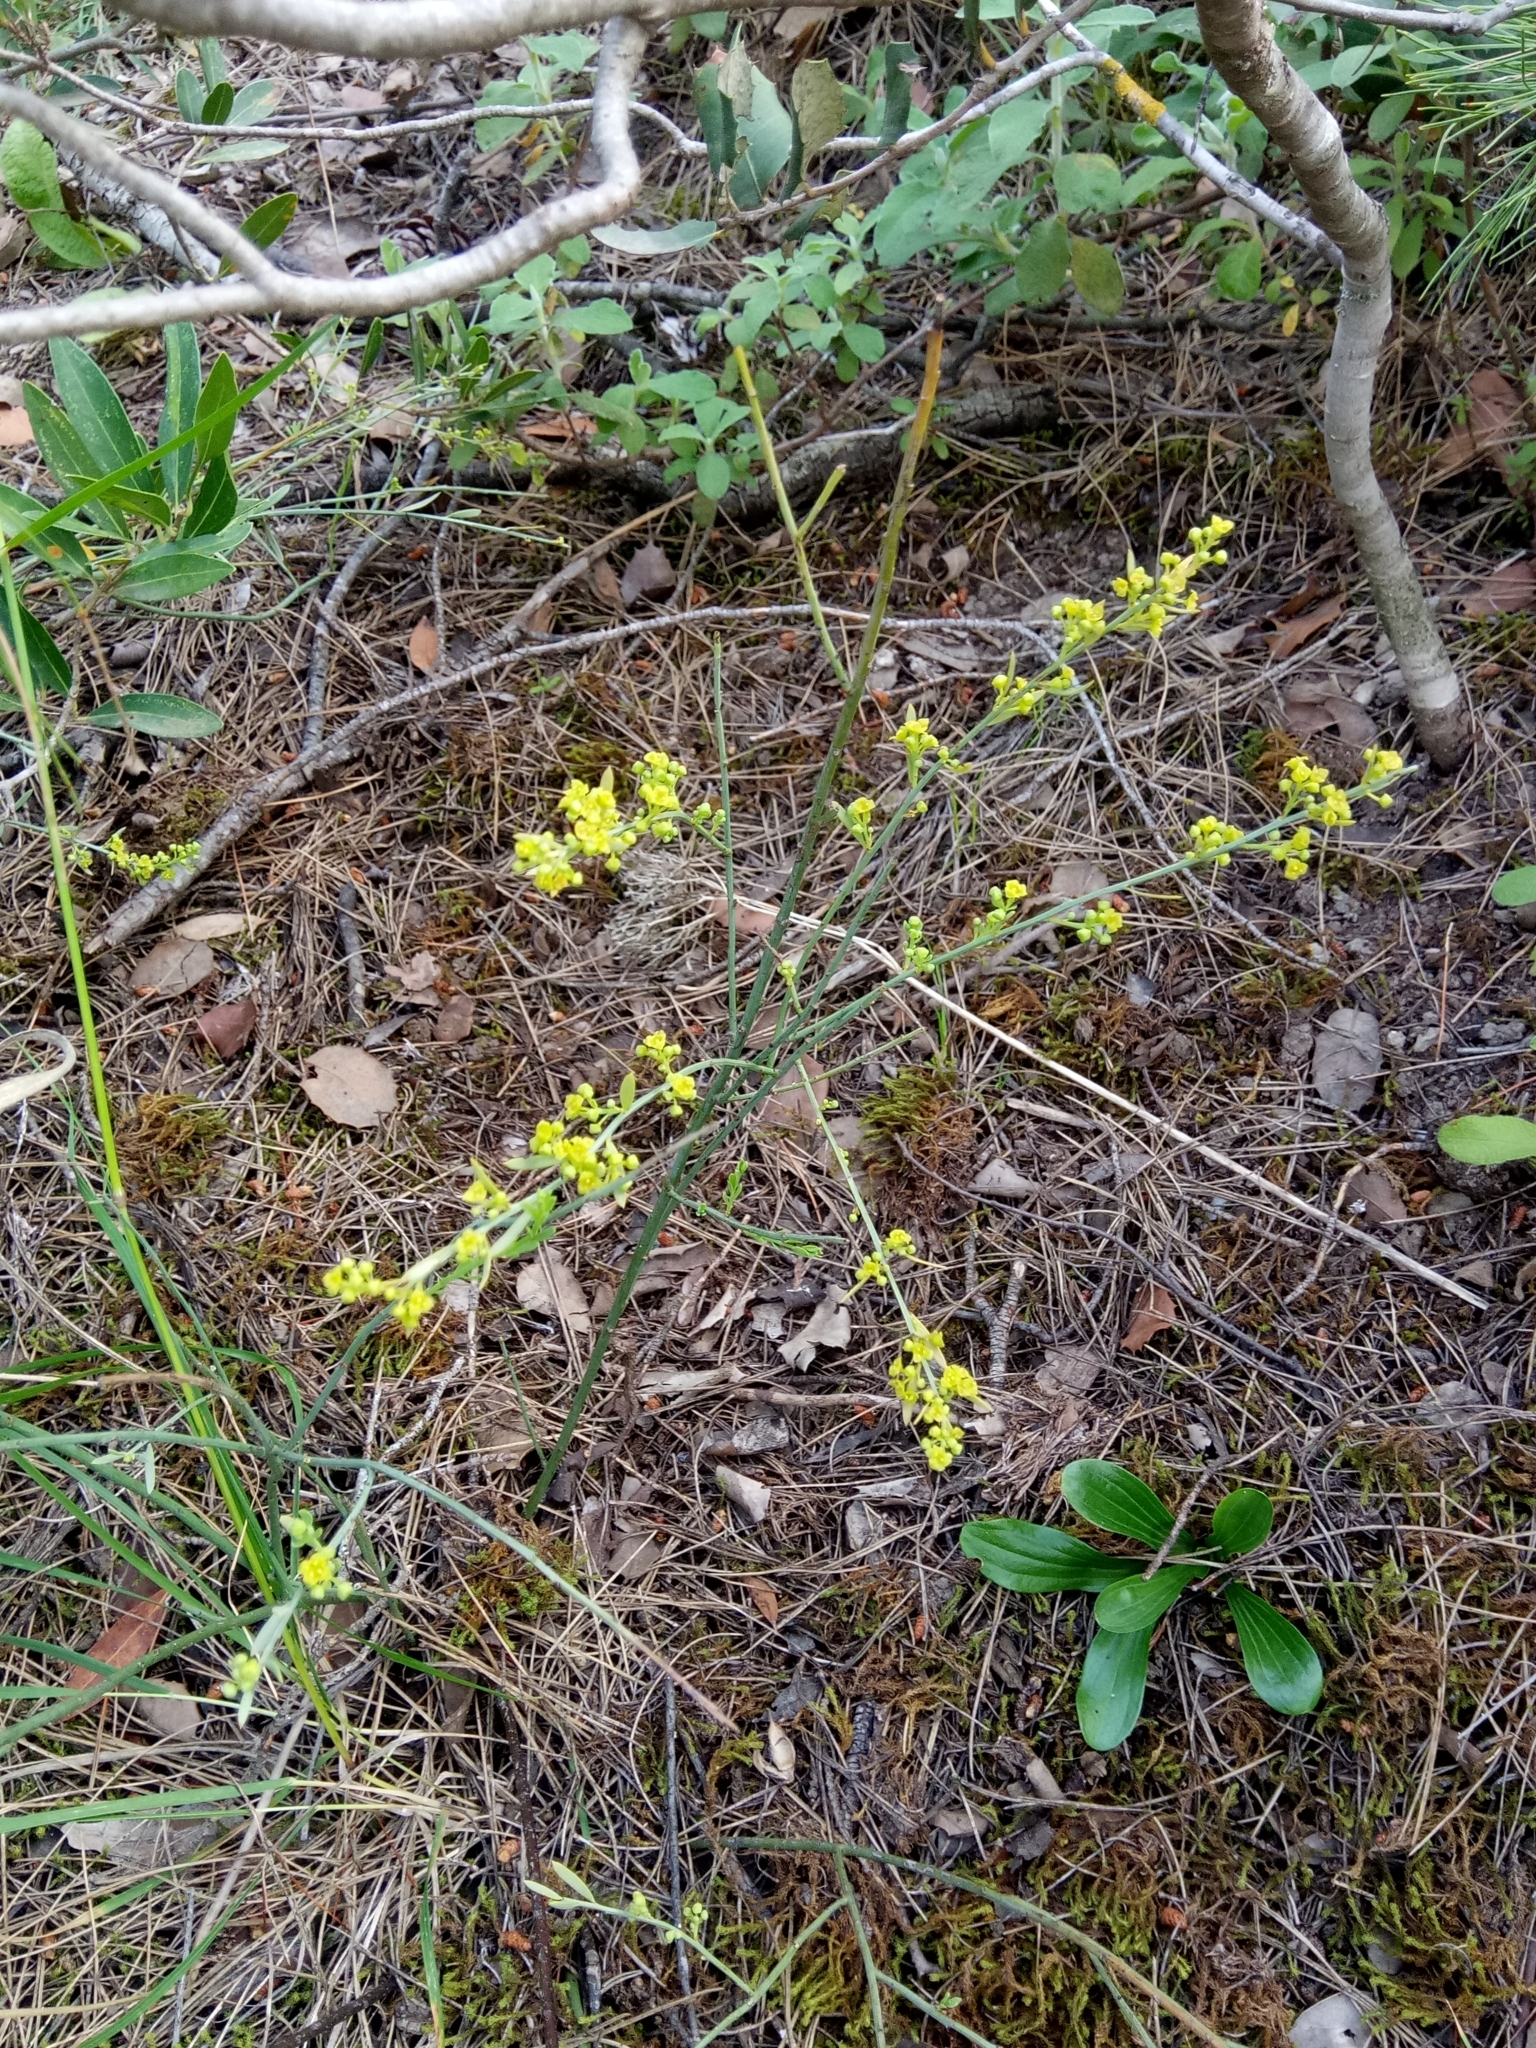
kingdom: Plantae
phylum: Tracheophyta
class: Magnoliopsida
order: Santalales
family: Santalaceae
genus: Osyris
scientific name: Osyris alba
